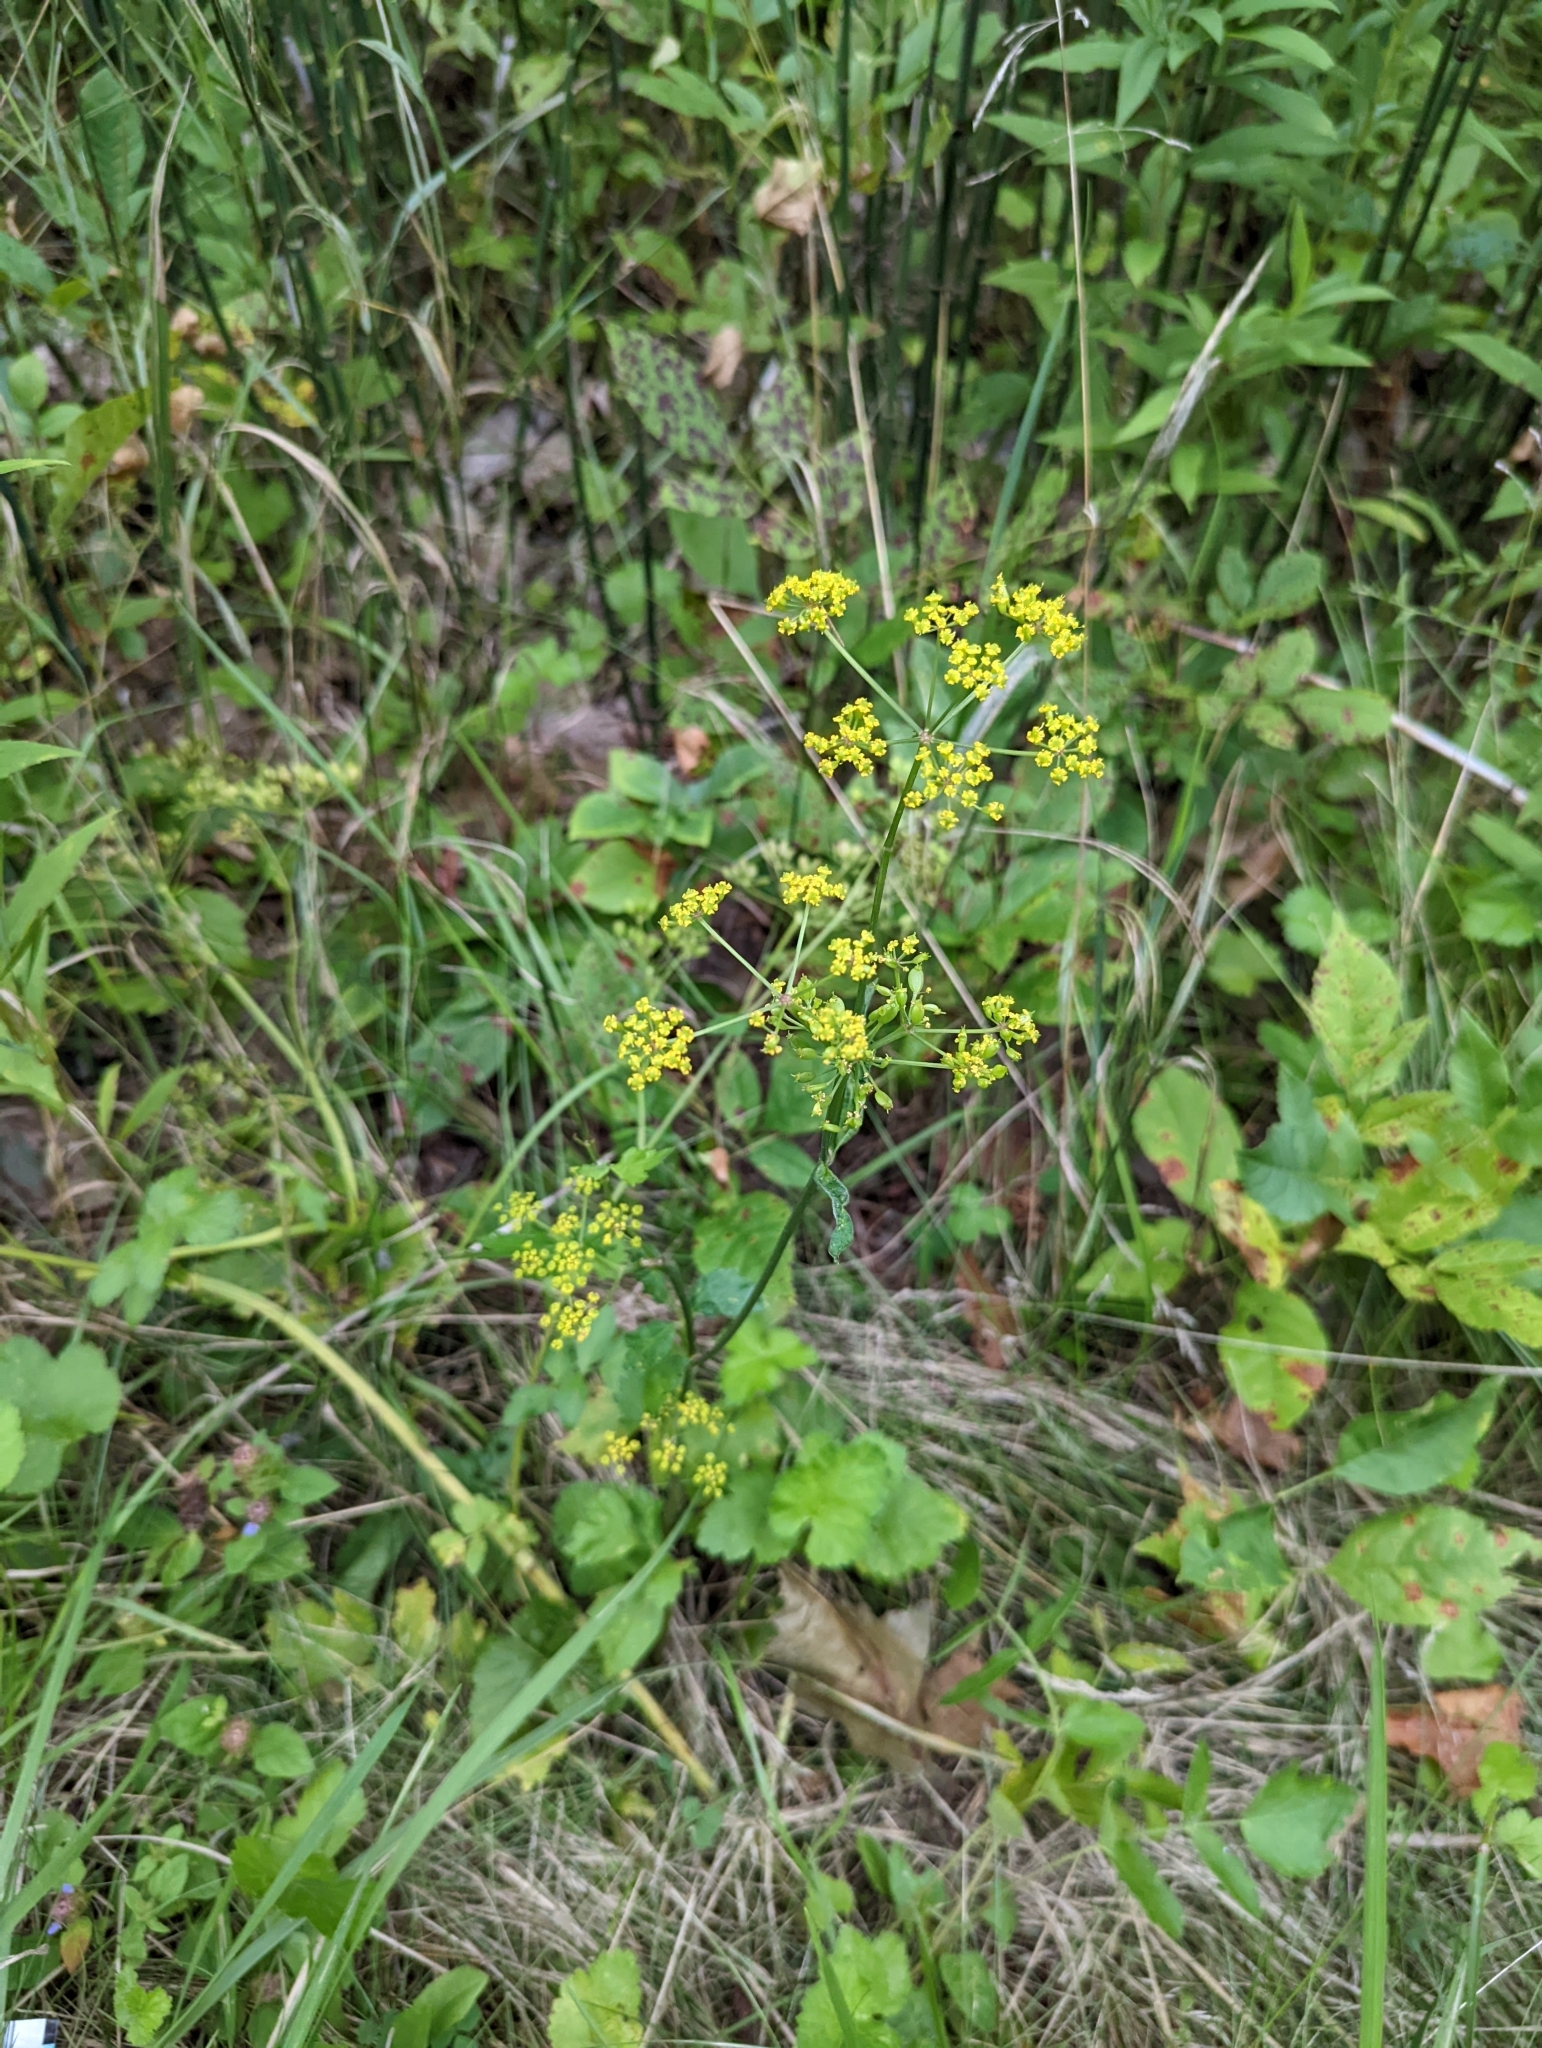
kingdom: Plantae
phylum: Tracheophyta
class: Magnoliopsida
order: Apiales
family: Apiaceae
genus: Pastinaca
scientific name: Pastinaca sativa
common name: Wild parsnip
